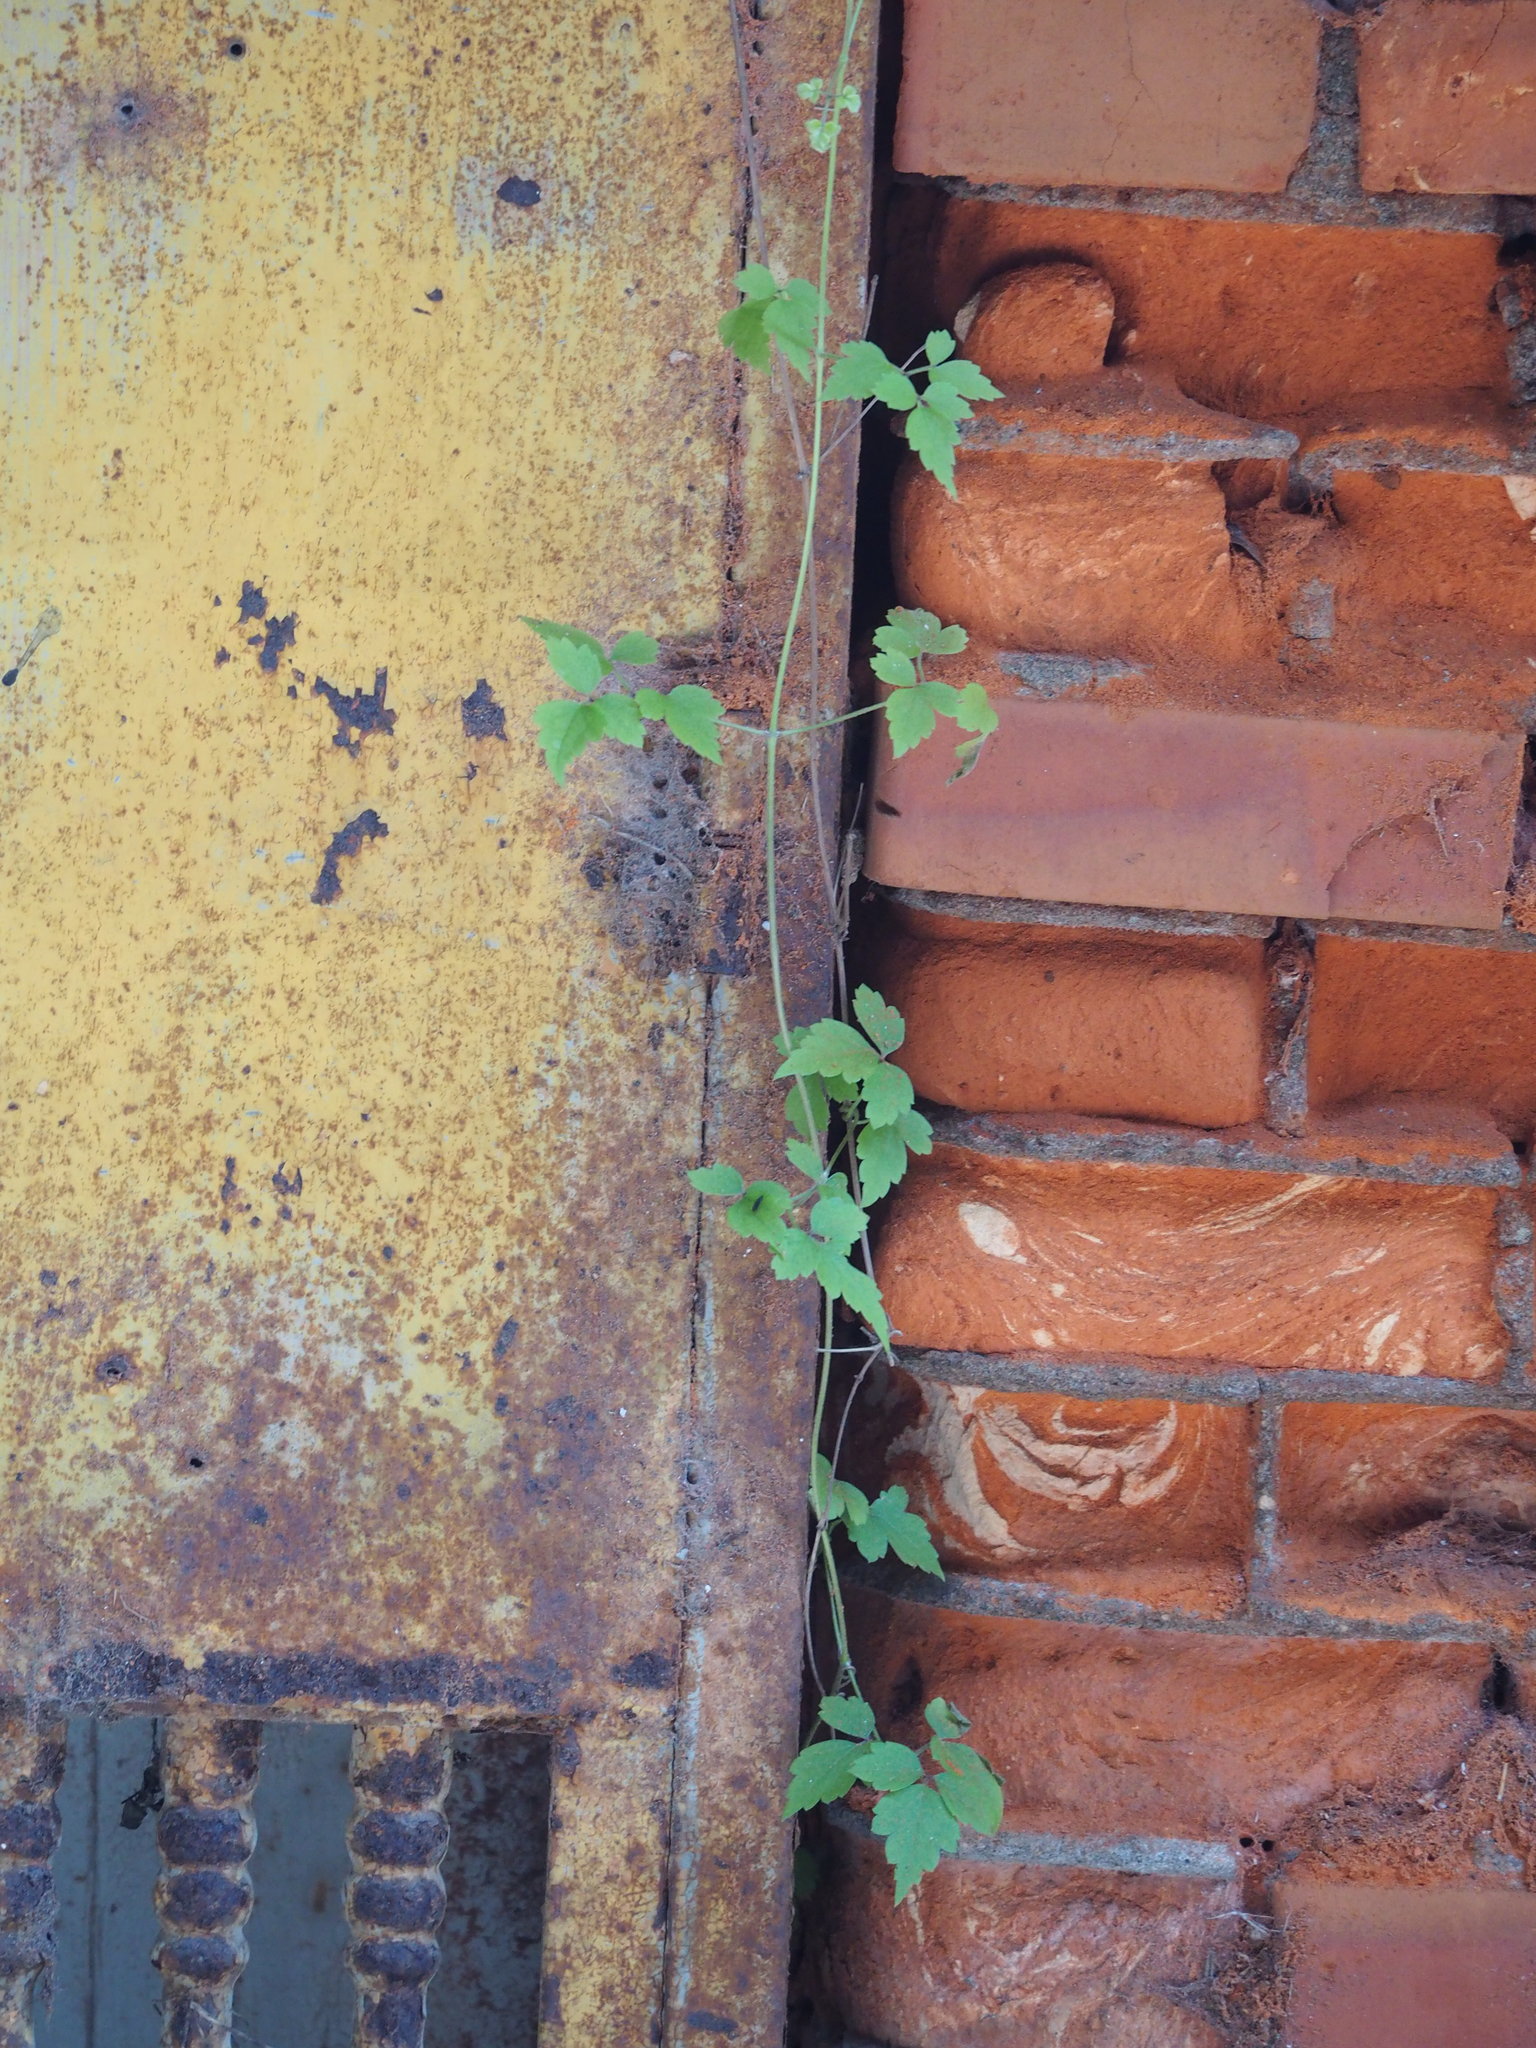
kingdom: Plantae
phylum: Tracheophyta
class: Magnoliopsida
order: Ranunculales
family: Ranunculaceae
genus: Clematis
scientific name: Clematis grata
